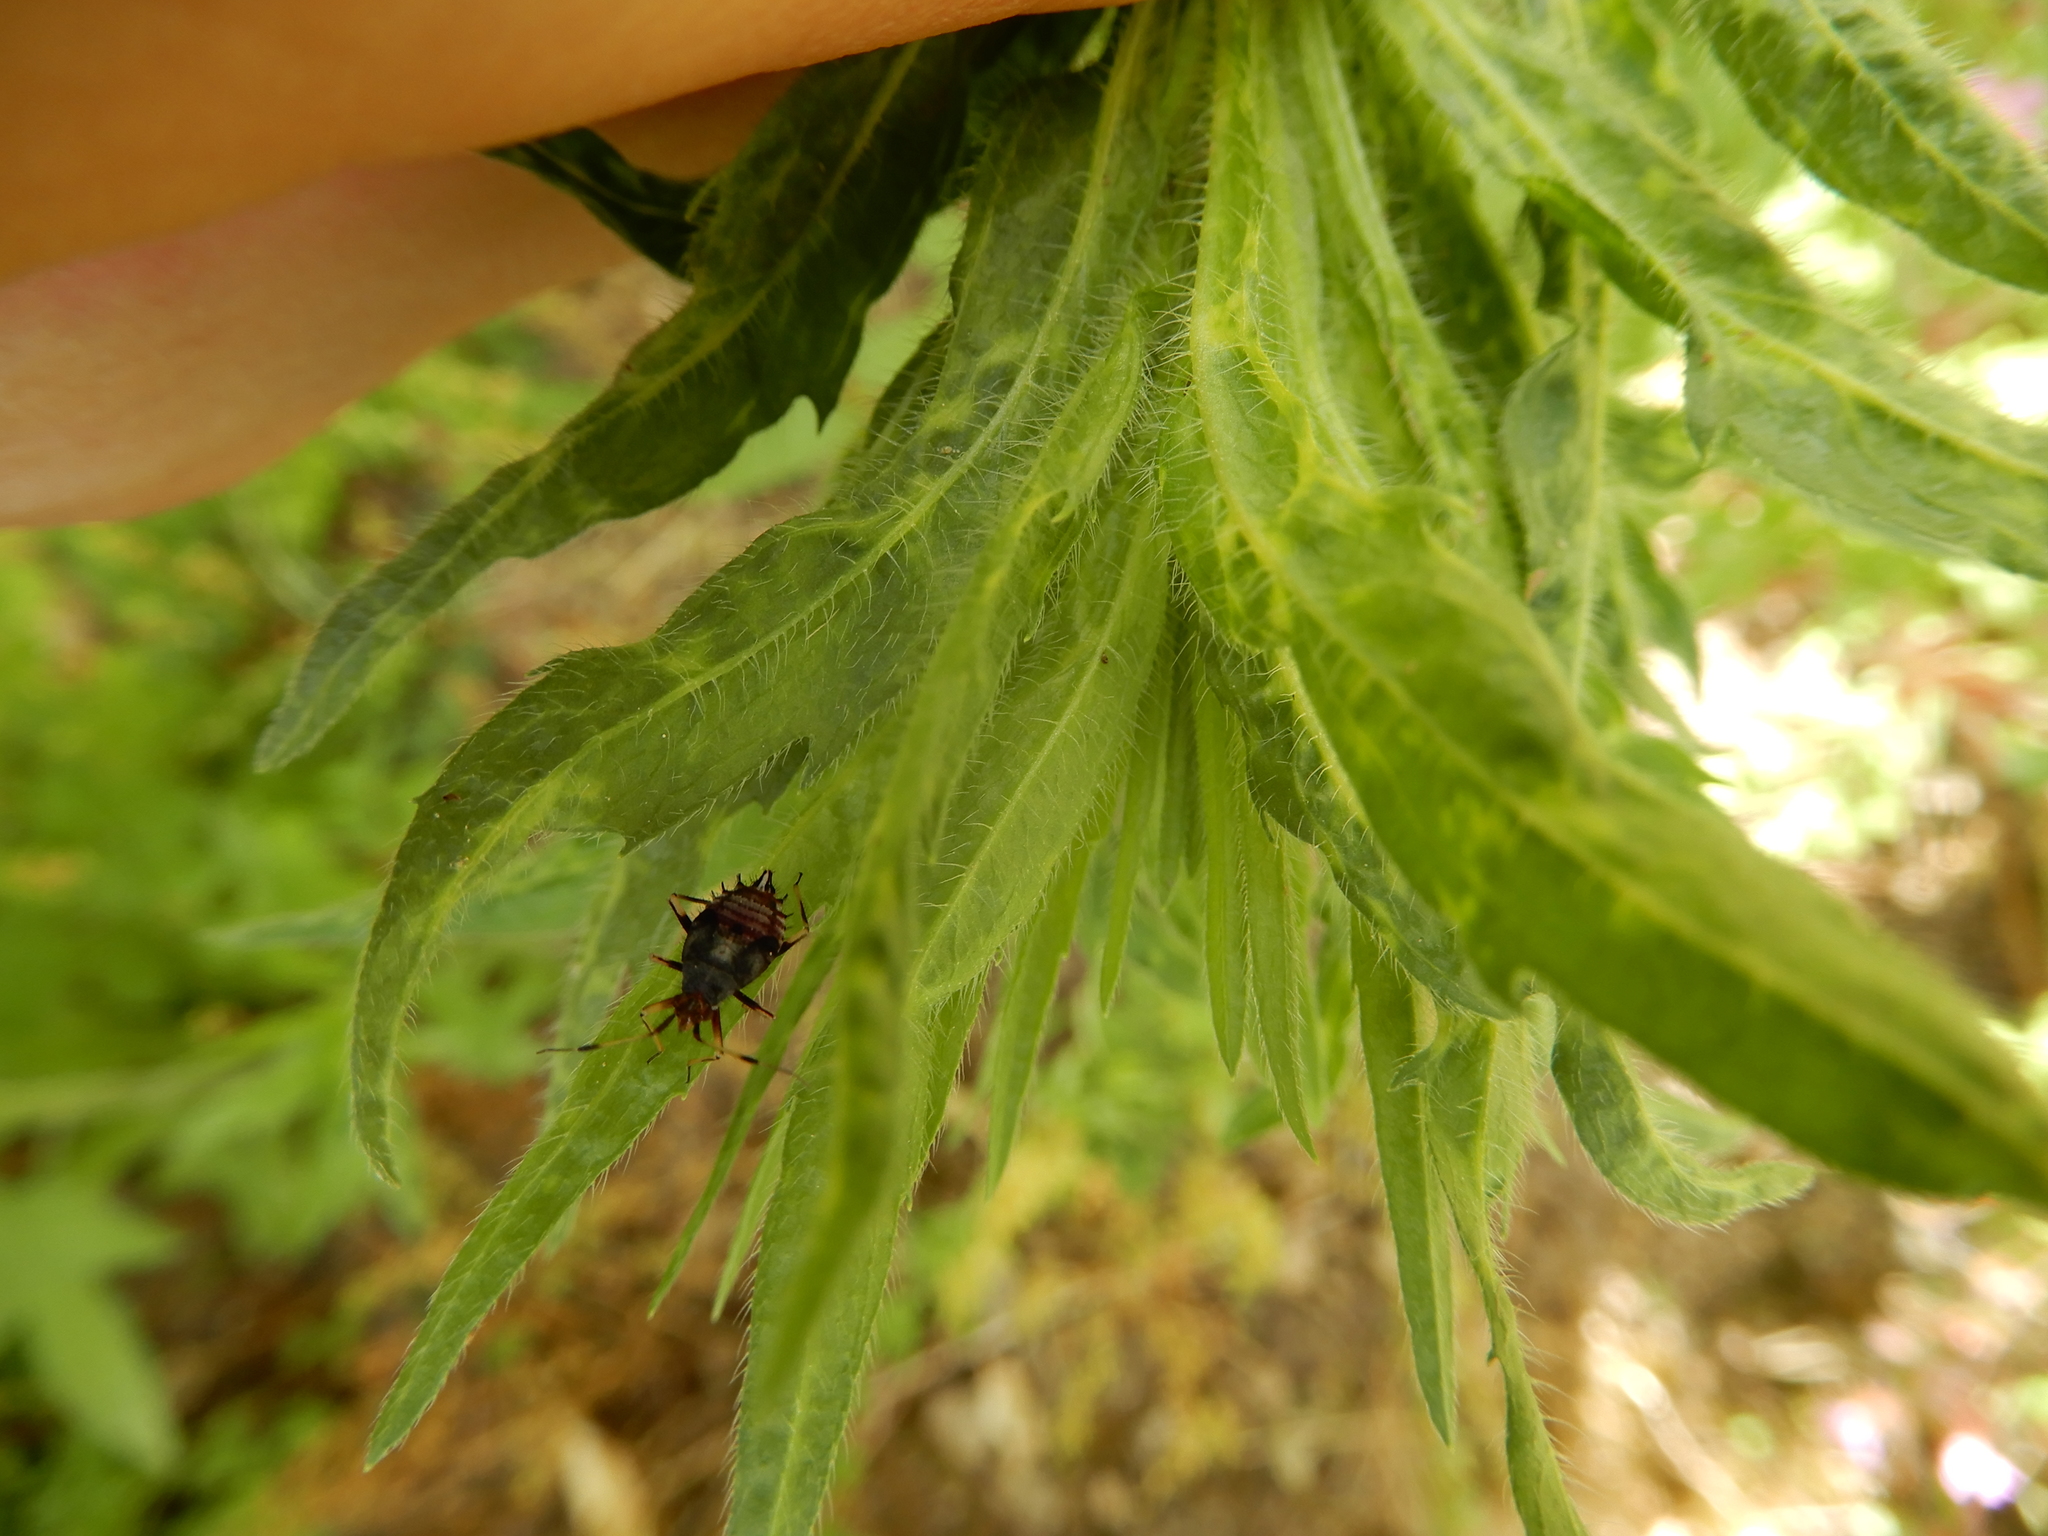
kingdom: Animalia
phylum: Arthropoda
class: Insecta
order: Hemiptera
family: Miridae
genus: Deraeocoris
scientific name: Deraeocoris ruber
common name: Plant bug
